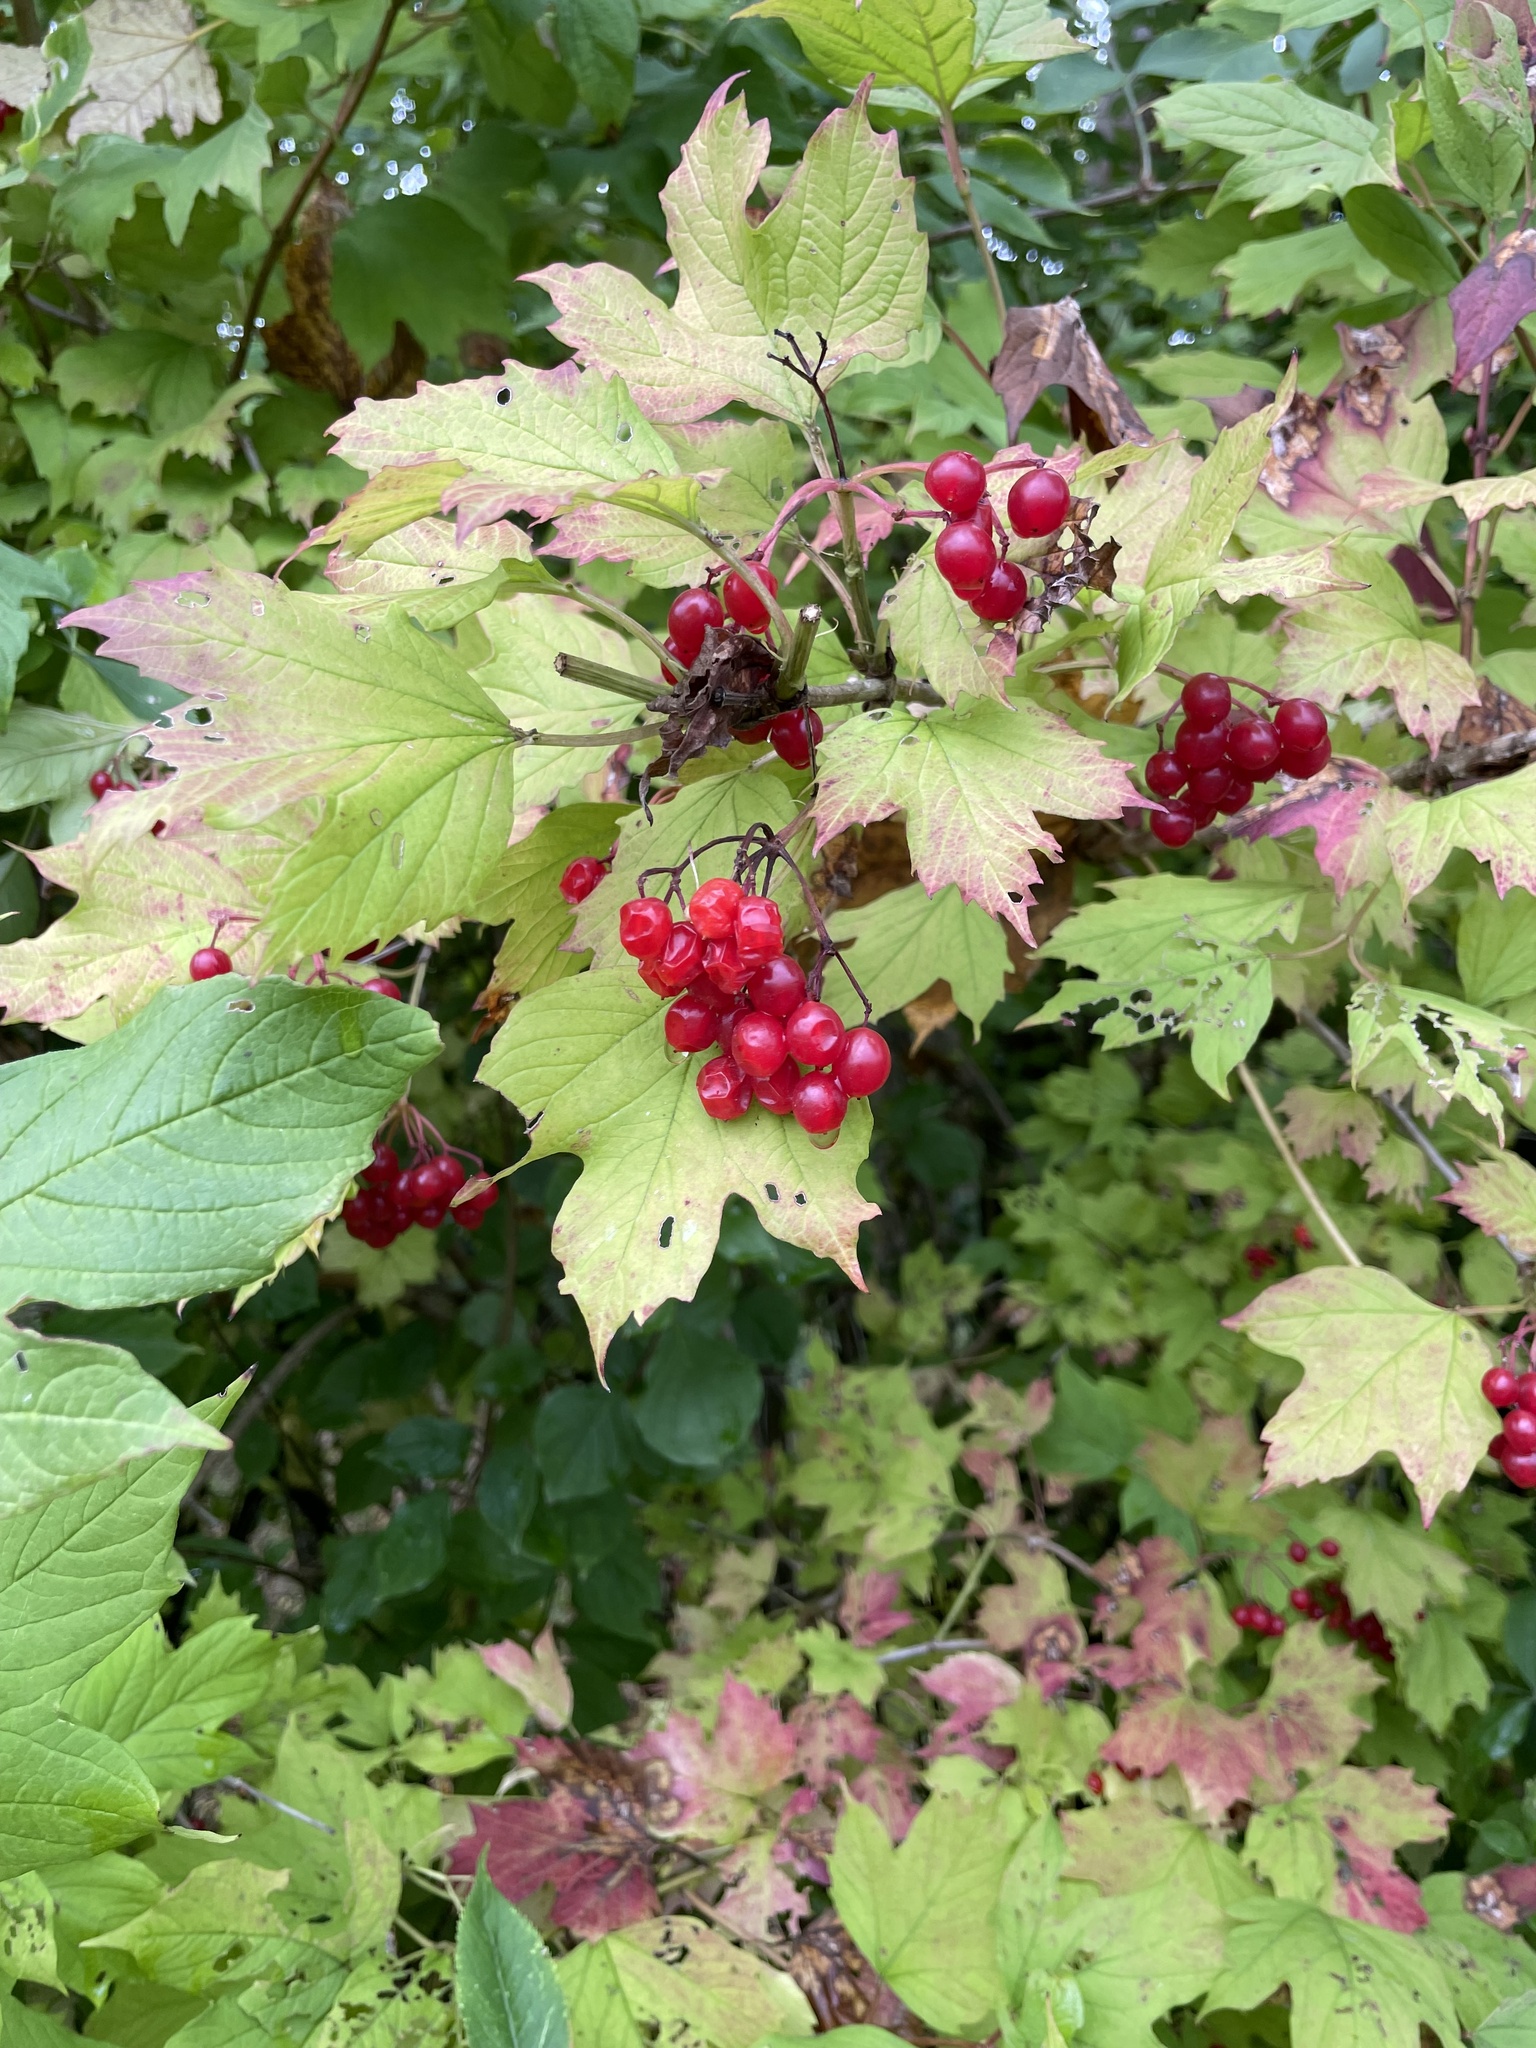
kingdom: Plantae
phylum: Tracheophyta
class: Magnoliopsida
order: Dipsacales
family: Viburnaceae
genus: Viburnum
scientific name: Viburnum opulus
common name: Guelder-rose
